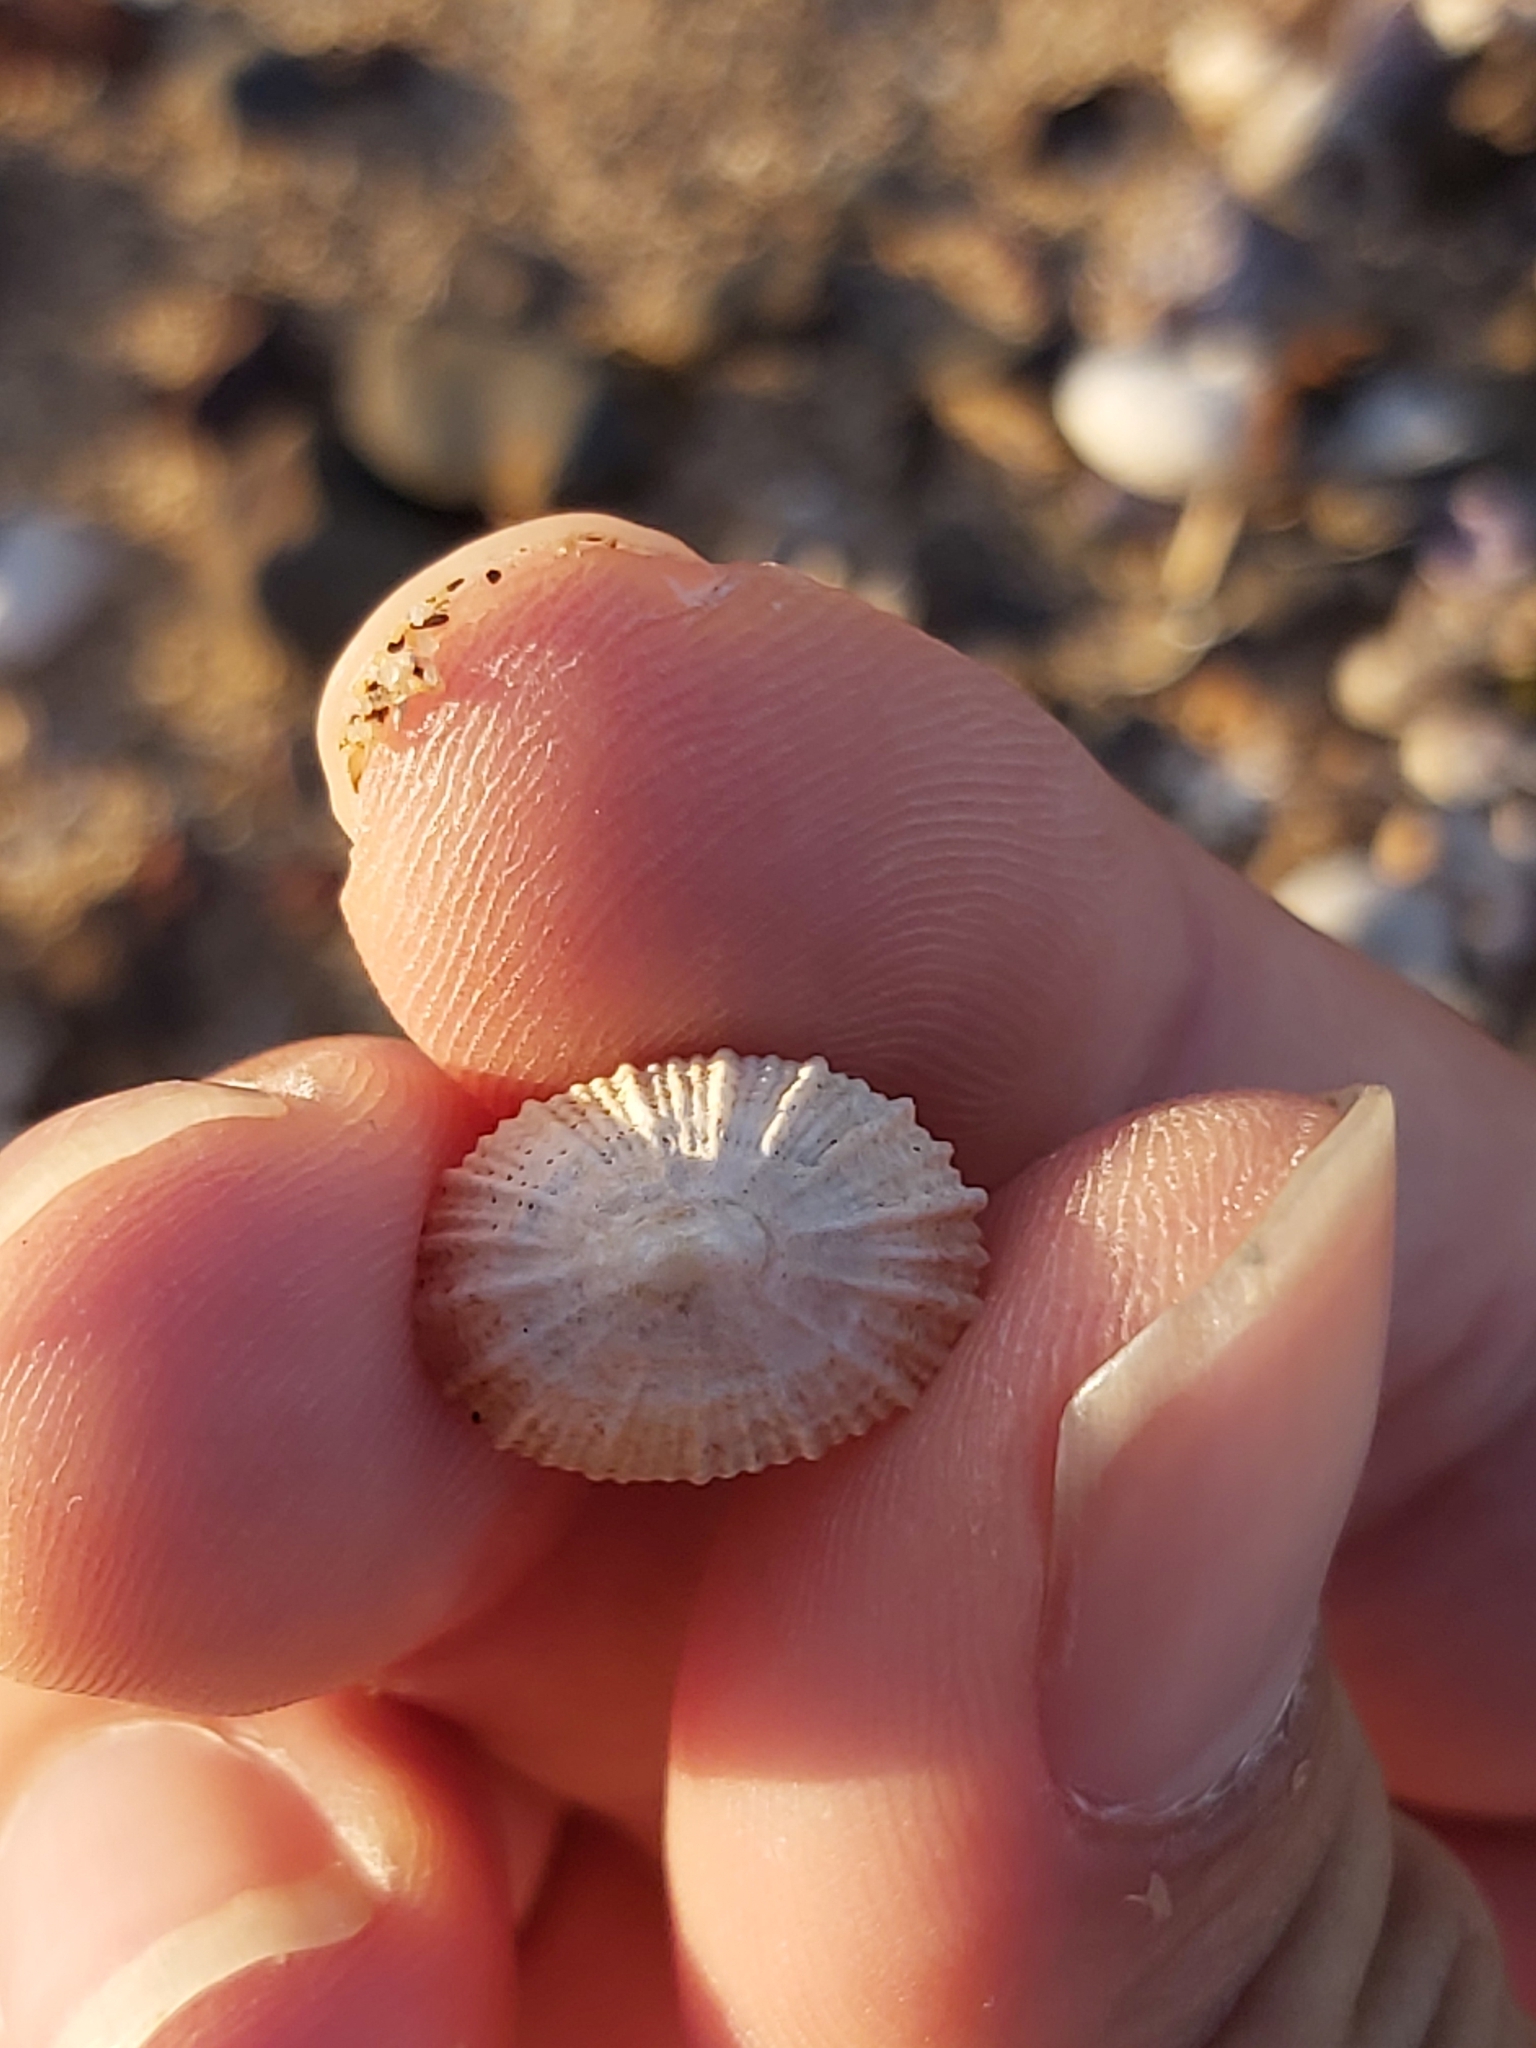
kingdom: Animalia
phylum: Mollusca
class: Gastropoda
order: Lepetellida
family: Fissurellidae
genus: Montfortula
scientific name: Montfortula rugosa
